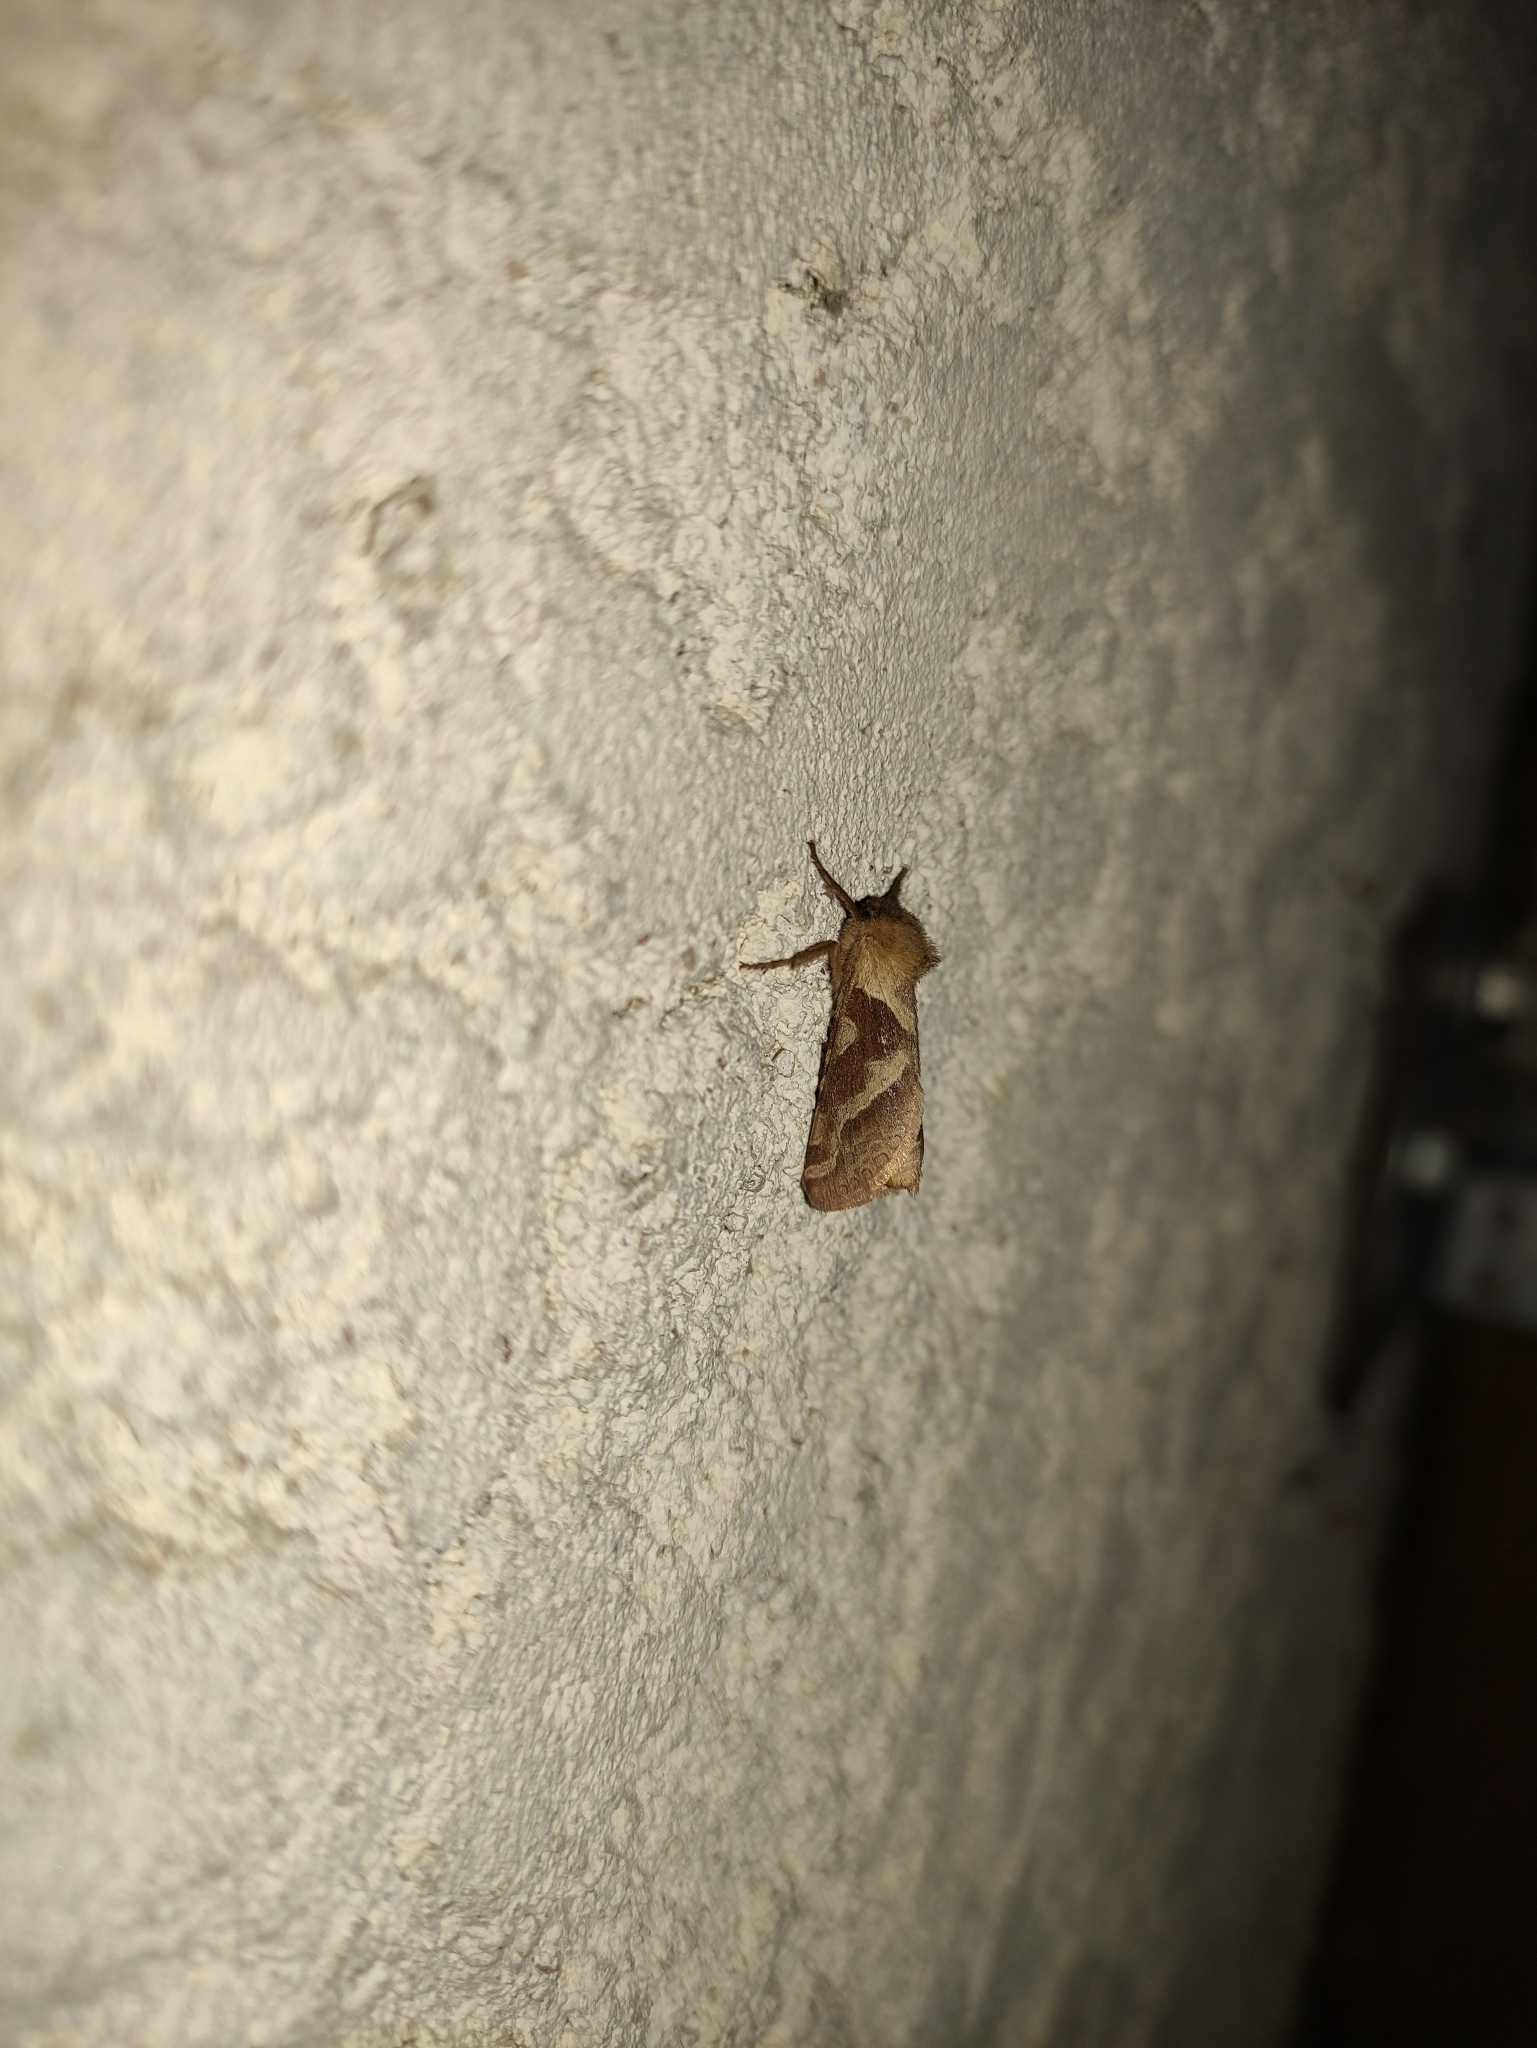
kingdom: Animalia
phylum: Arthropoda
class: Insecta
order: Lepidoptera
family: Hepialidae
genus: Triodia
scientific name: Triodia sylvina
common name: Orange swift
